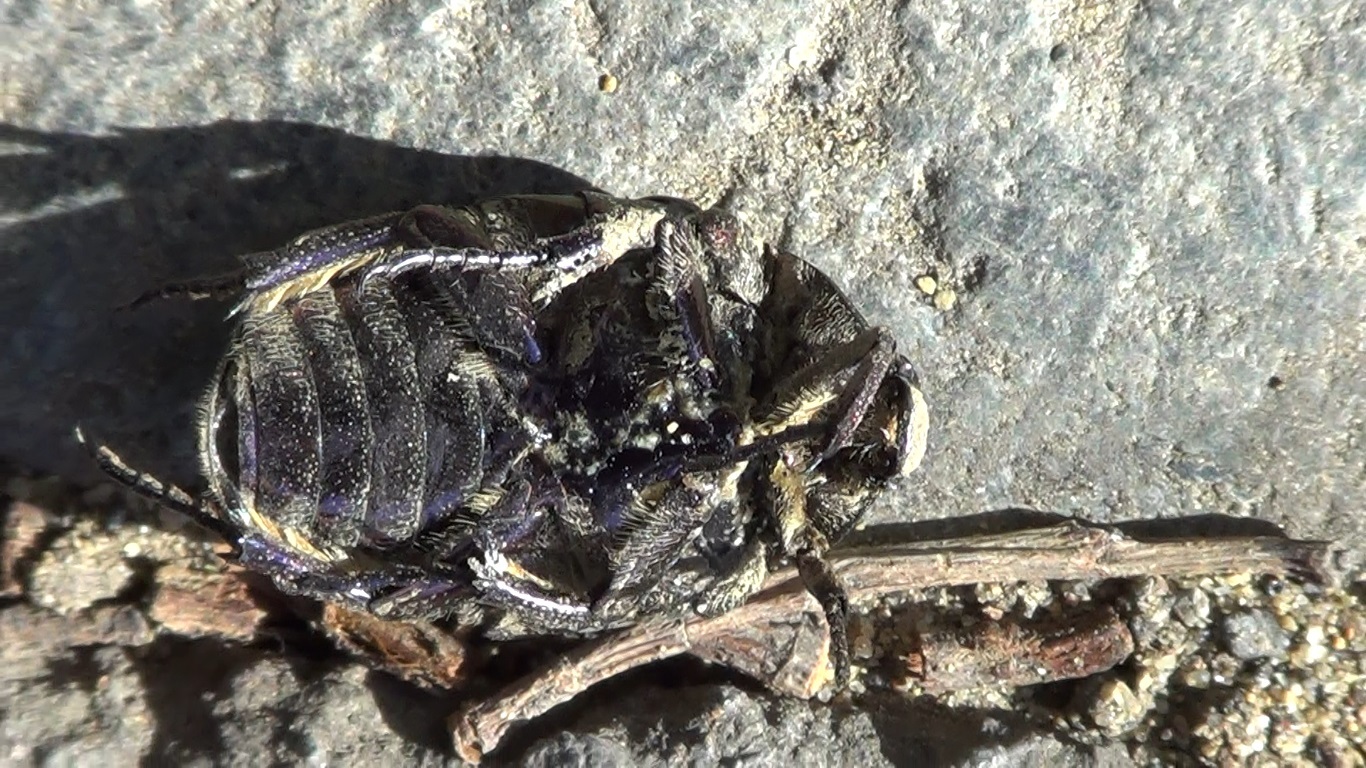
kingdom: Animalia
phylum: Arthropoda
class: Insecta
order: Coleoptera
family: Scarabaeidae
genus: Protaetia
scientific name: Protaetia cuprea
